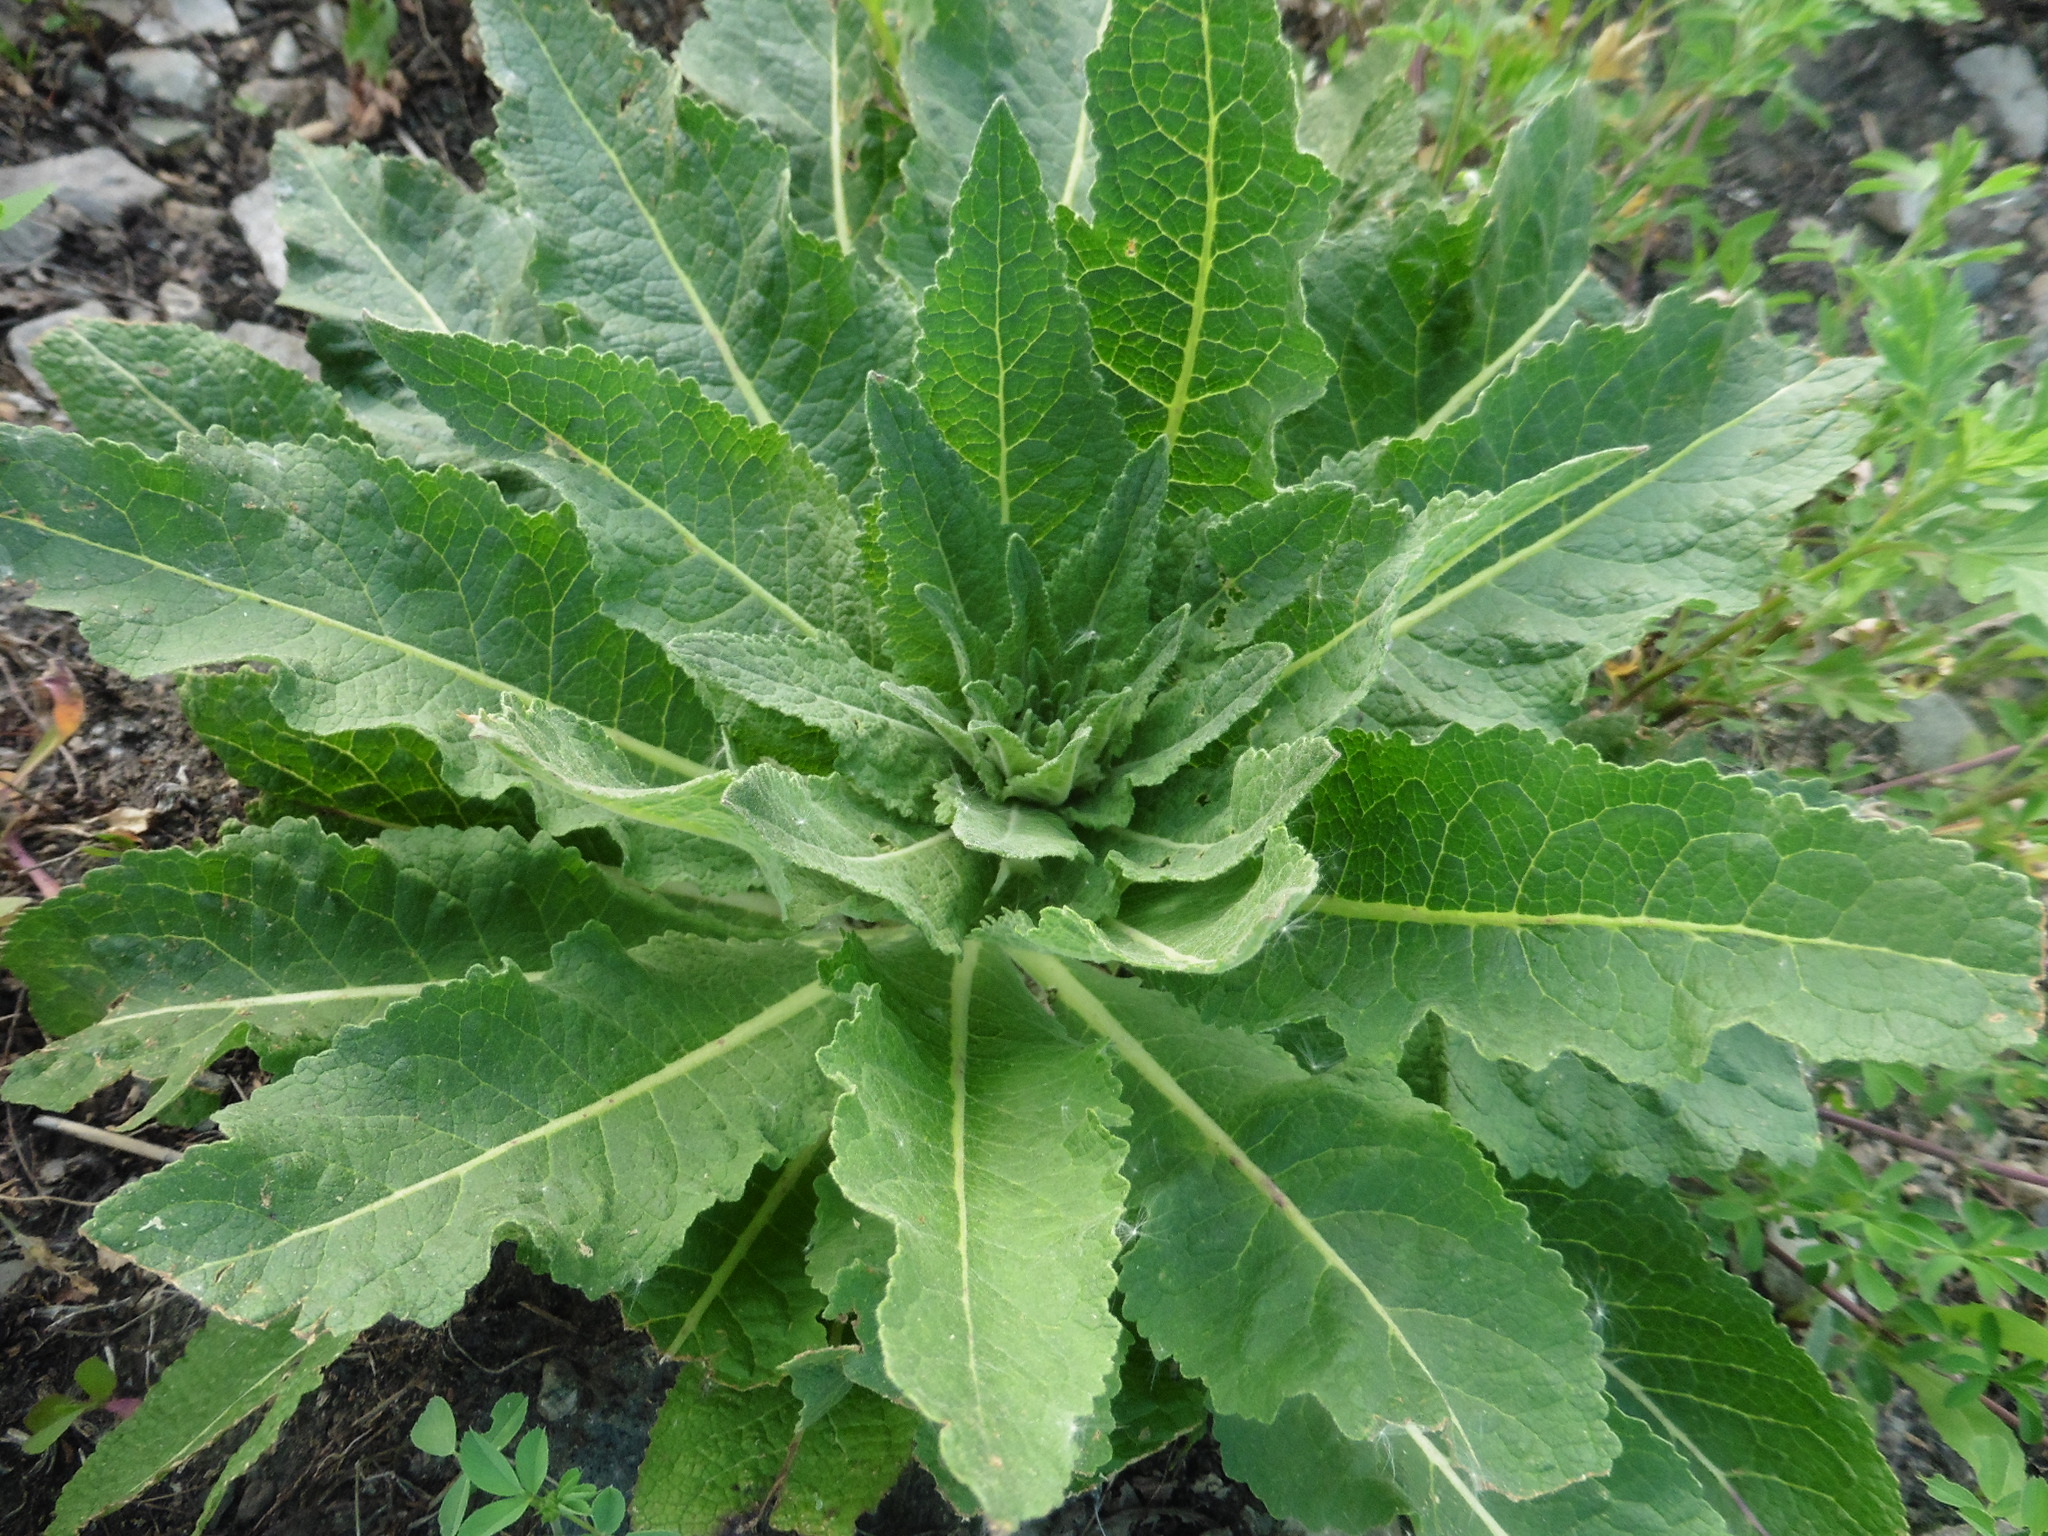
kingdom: Plantae
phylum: Tracheophyta
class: Magnoliopsida
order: Lamiales
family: Scrophulariaceae
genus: Verbascum
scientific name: Verbascum lychnitis
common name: White mullein
